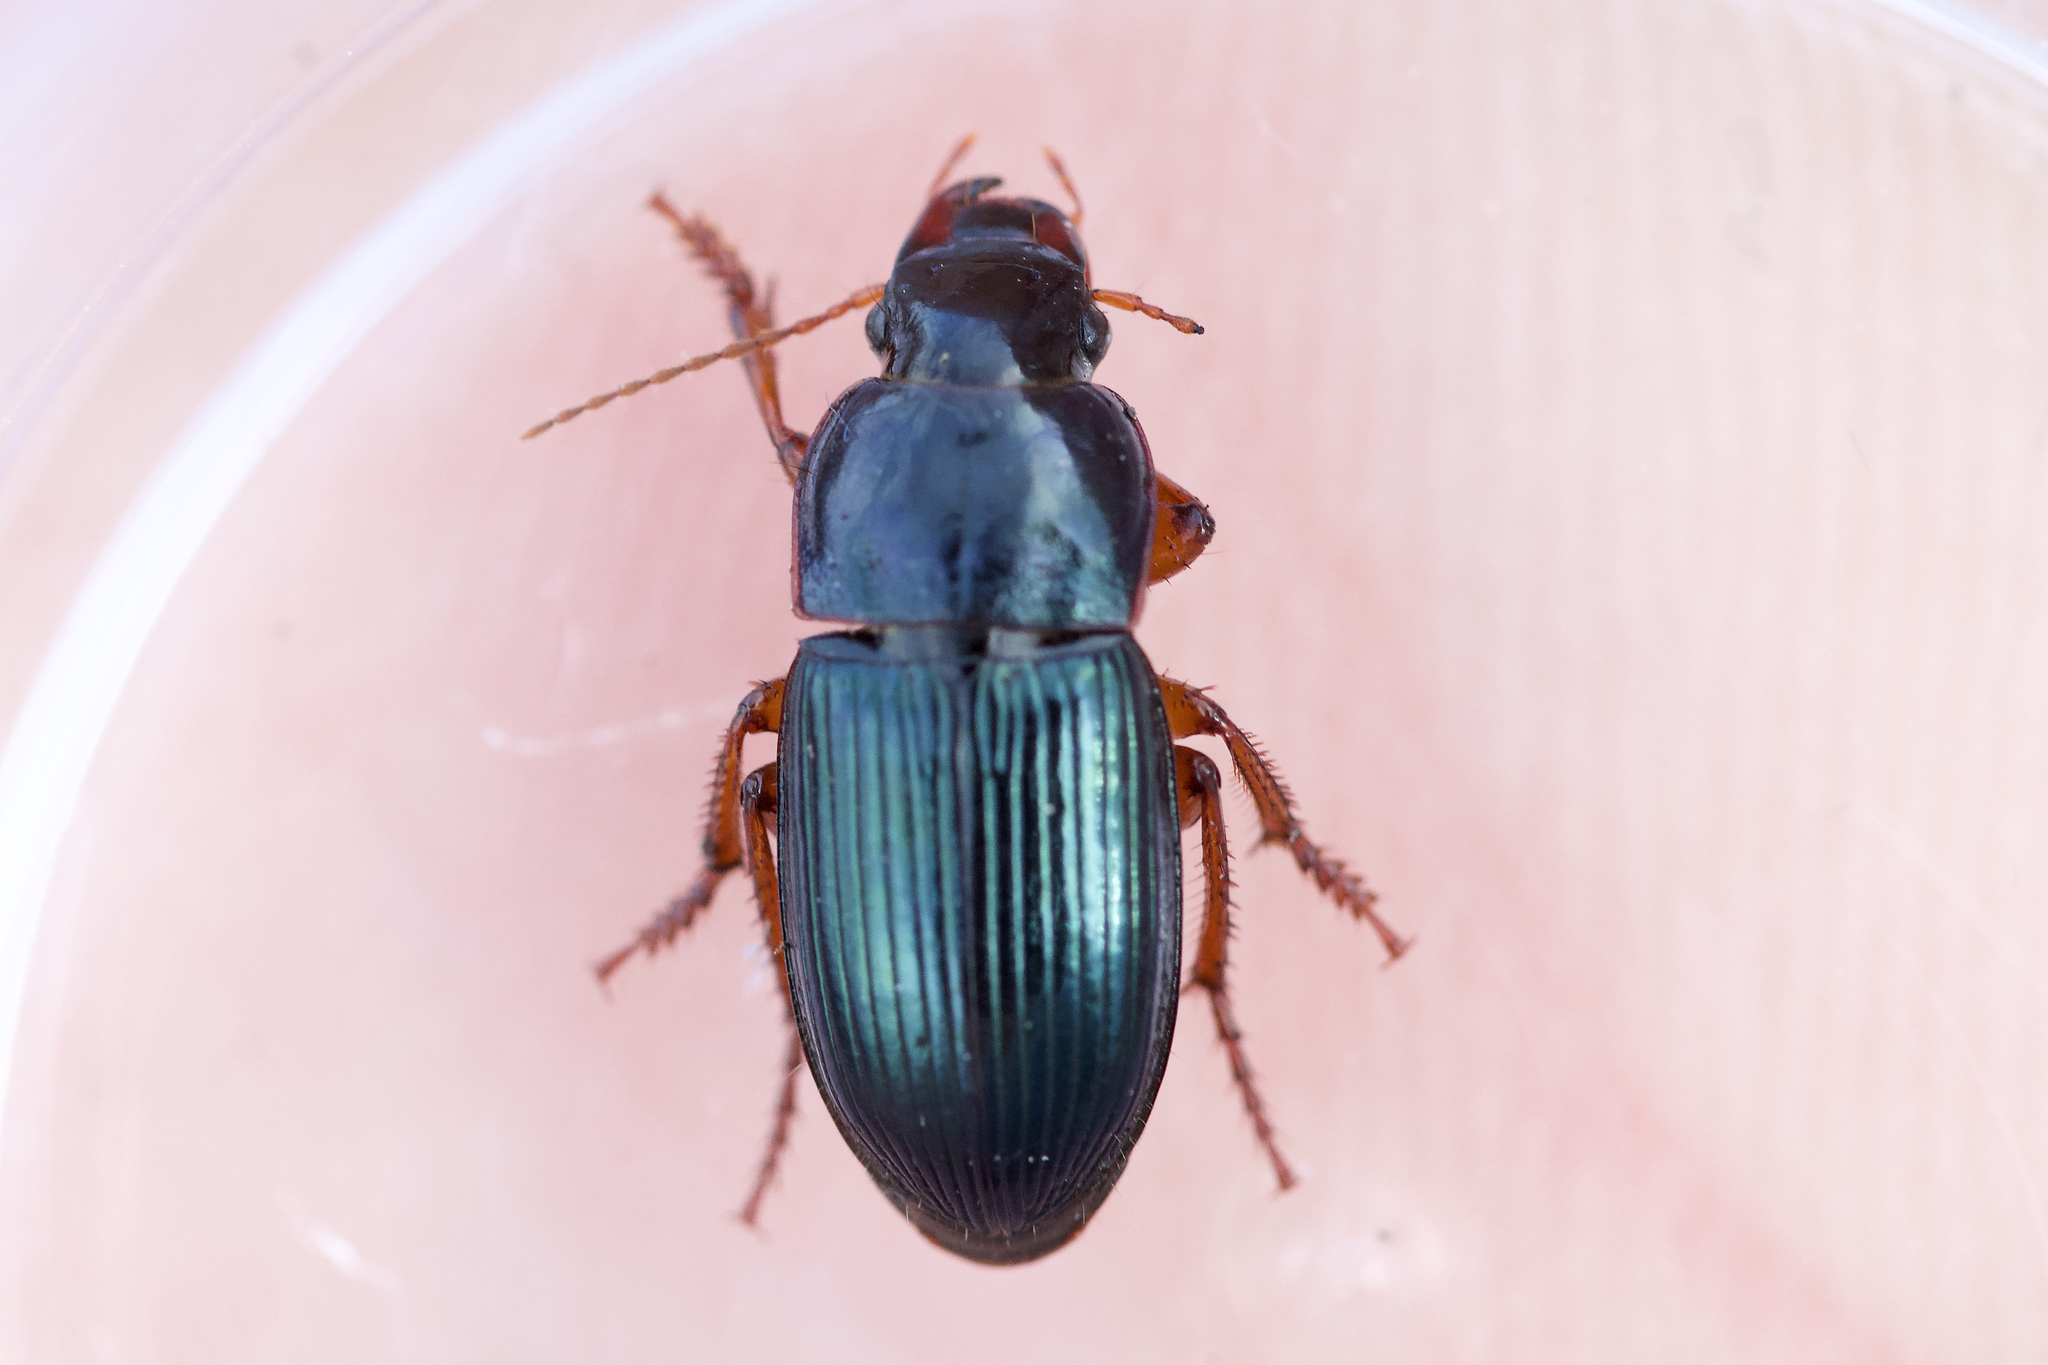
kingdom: Animalia
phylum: Arthropoda
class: Insecta
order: Coleoptera
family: Carabidae
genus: Harpalus
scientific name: Harpalus rubripes
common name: Red-legged harp ground beetle
